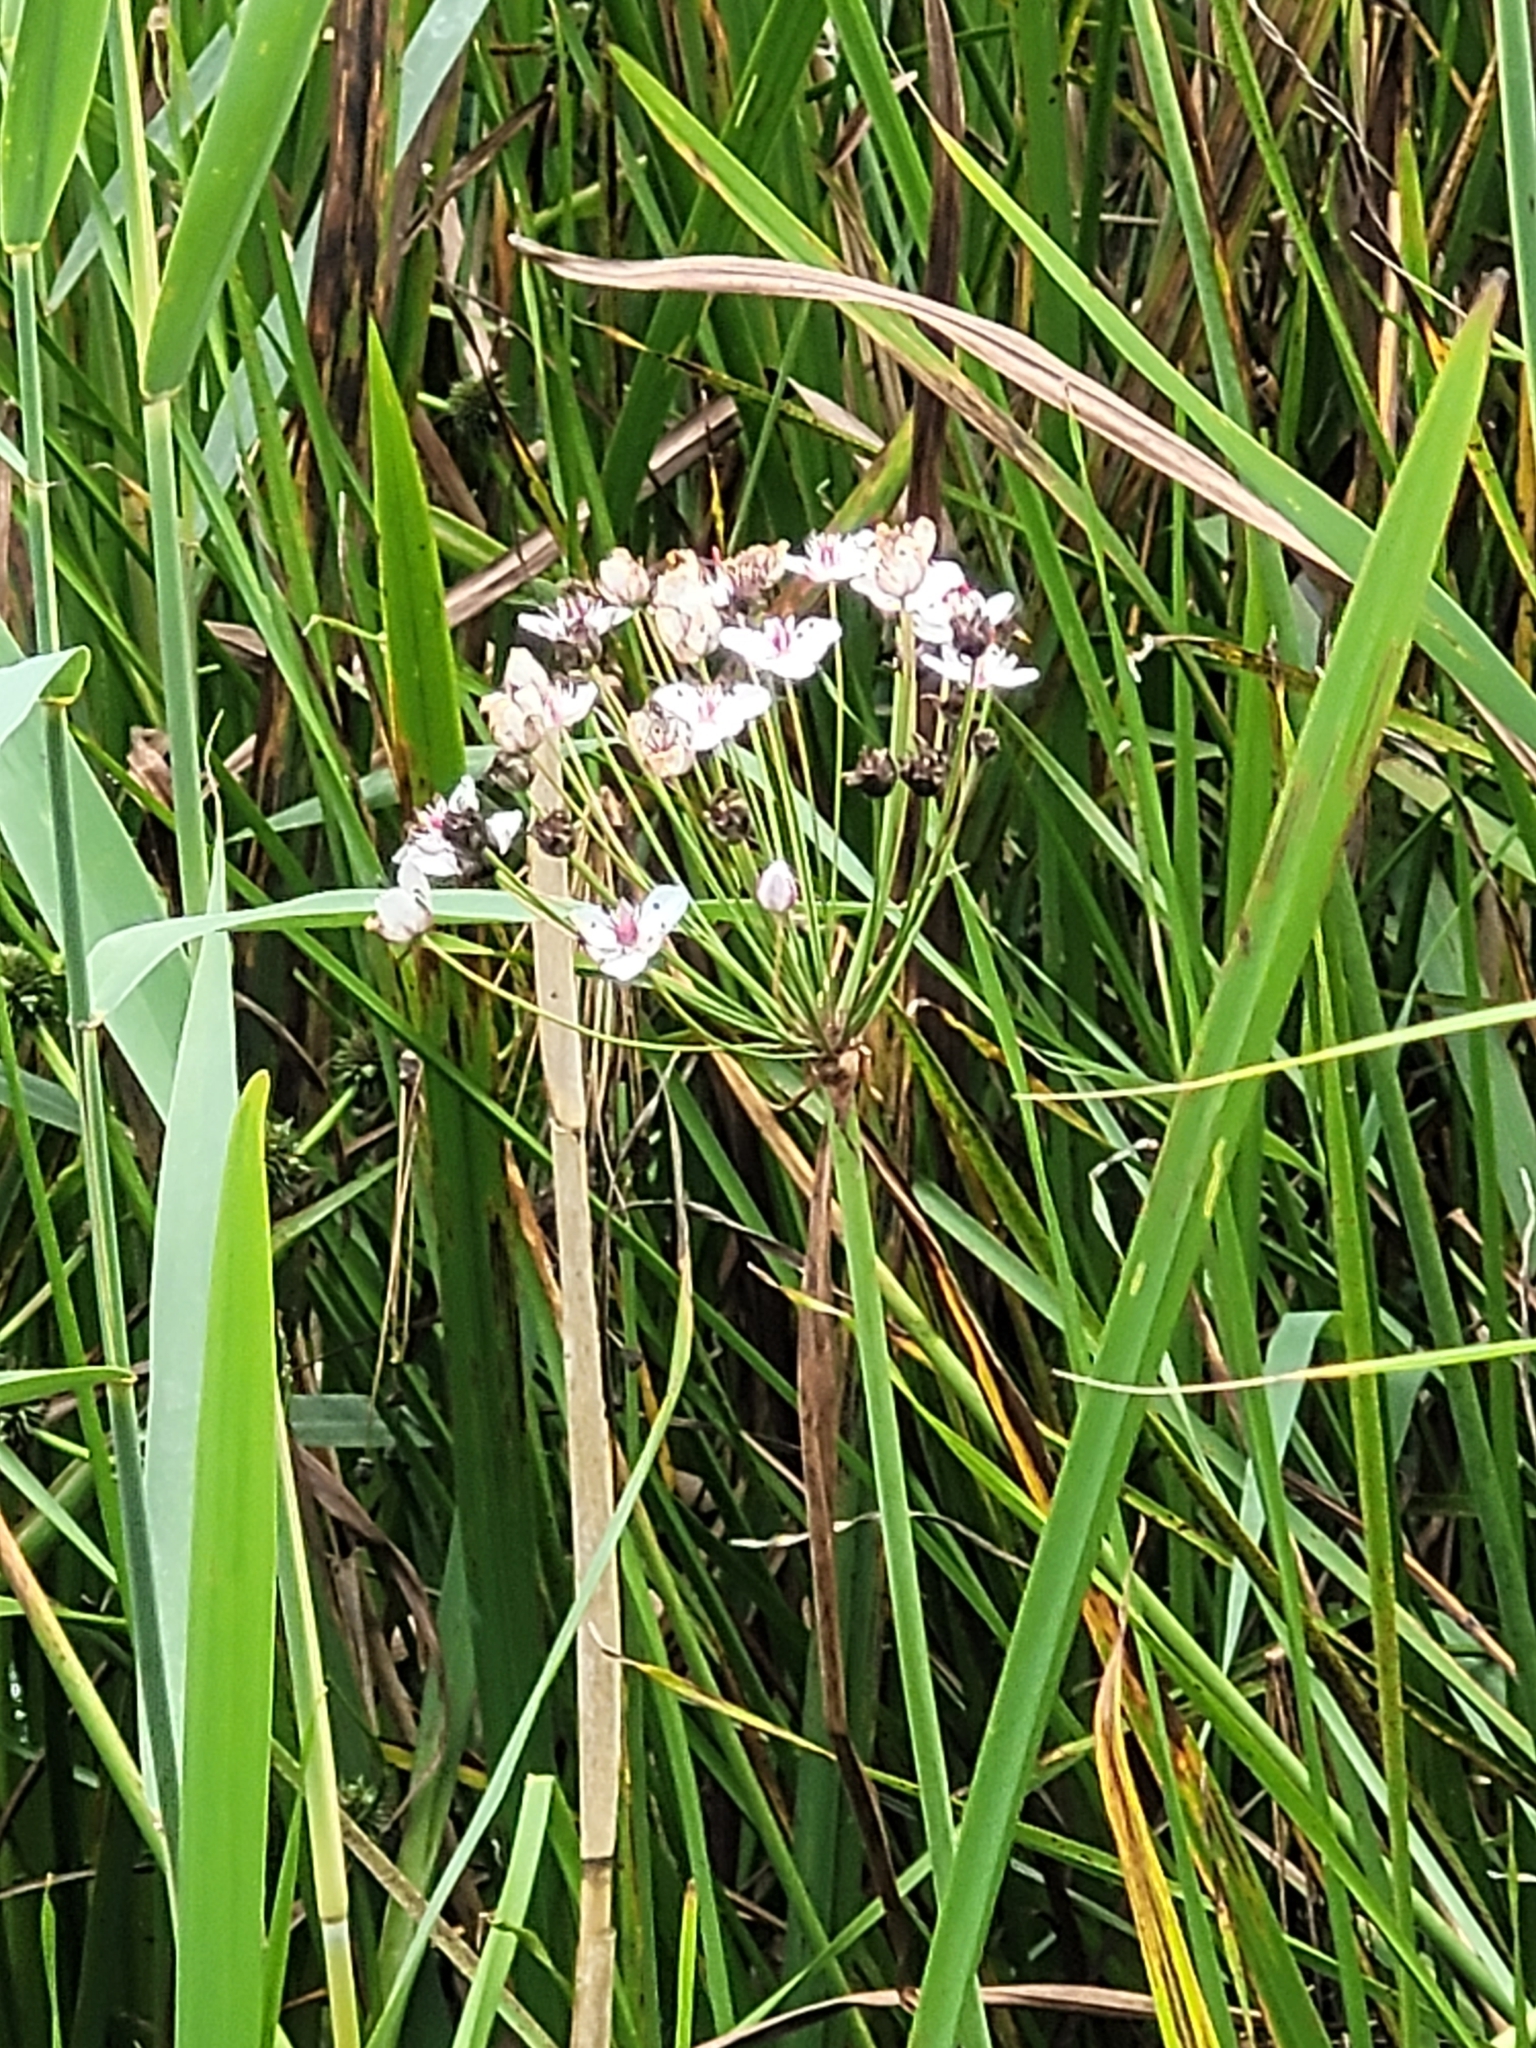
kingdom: Plantae
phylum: Tracheophyta
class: Liliopsida
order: Alismatales
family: Butomaceae
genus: Butomus
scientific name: Butomus umbellatus
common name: Flowering-rush
